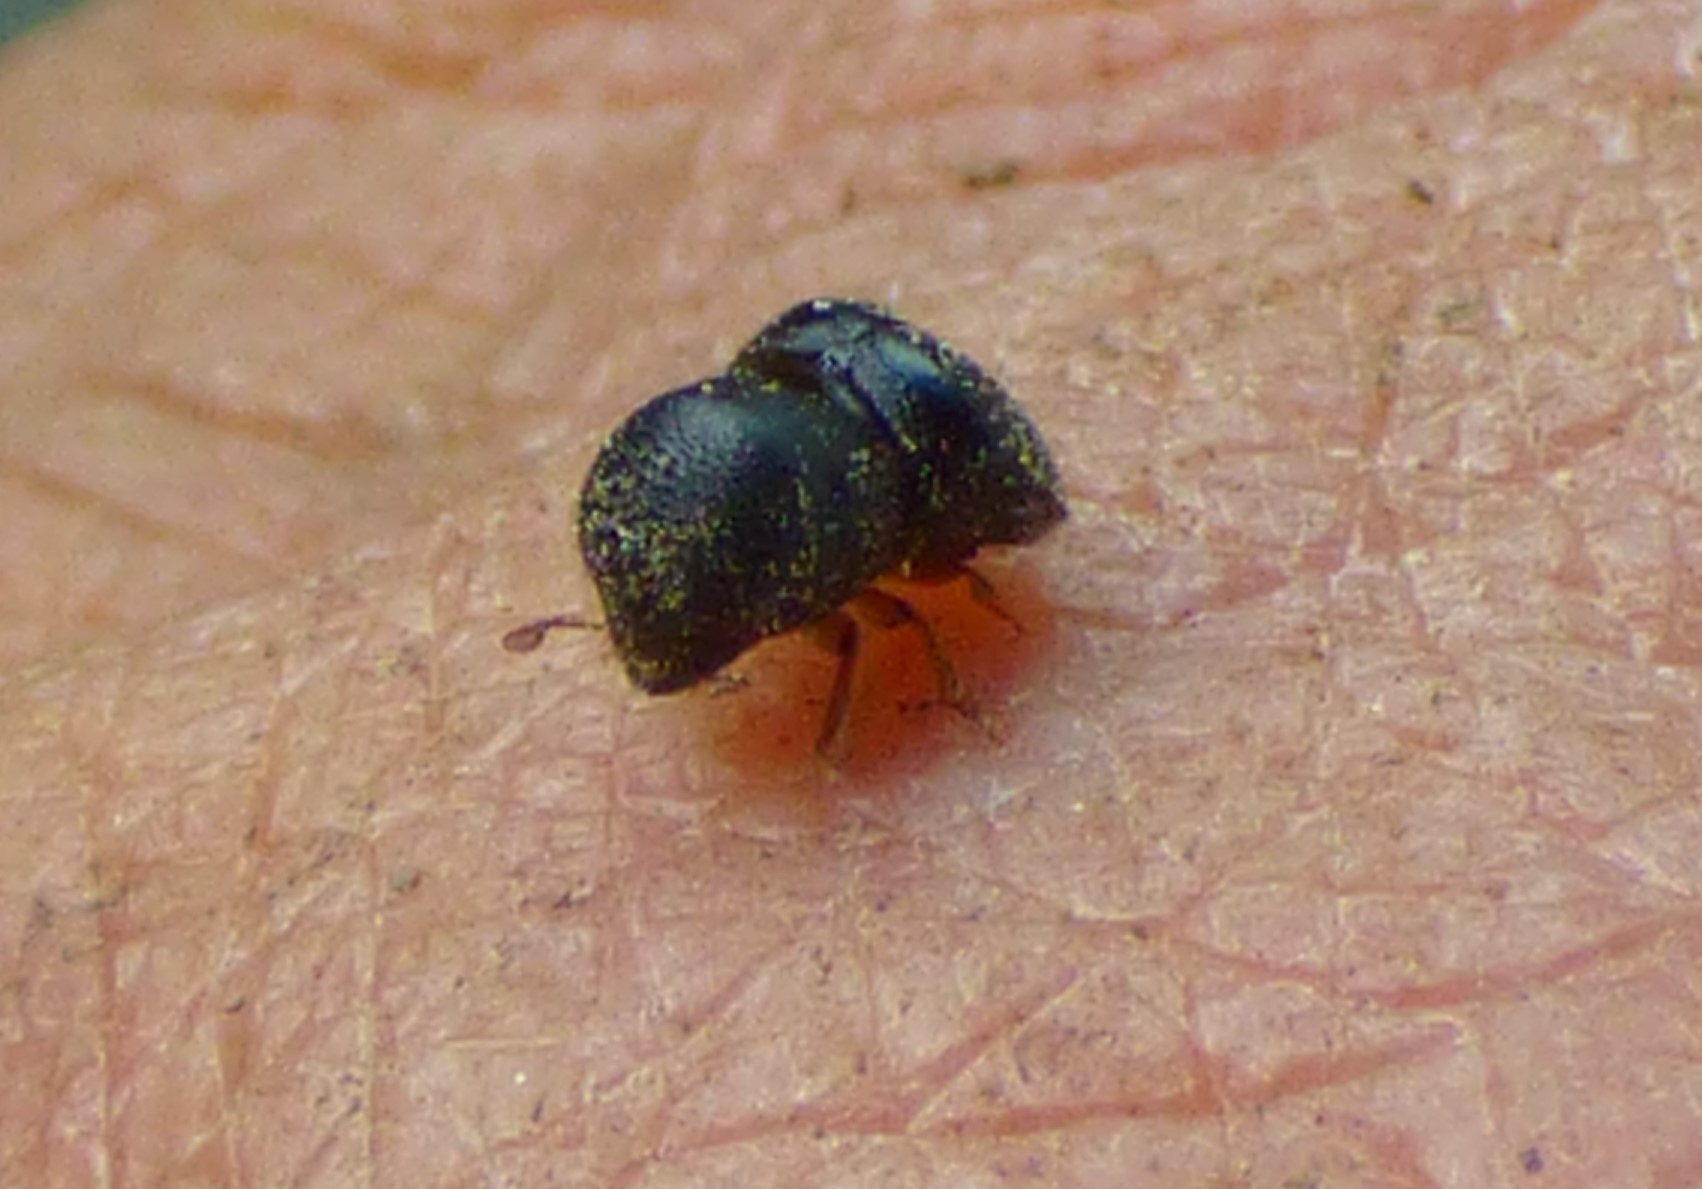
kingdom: Animalia
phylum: Arthropoda
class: Insecta
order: Coleoptera
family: Curculionidae
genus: Cnestus
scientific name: Cnestus mutilatus
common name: Camphor shot borer
